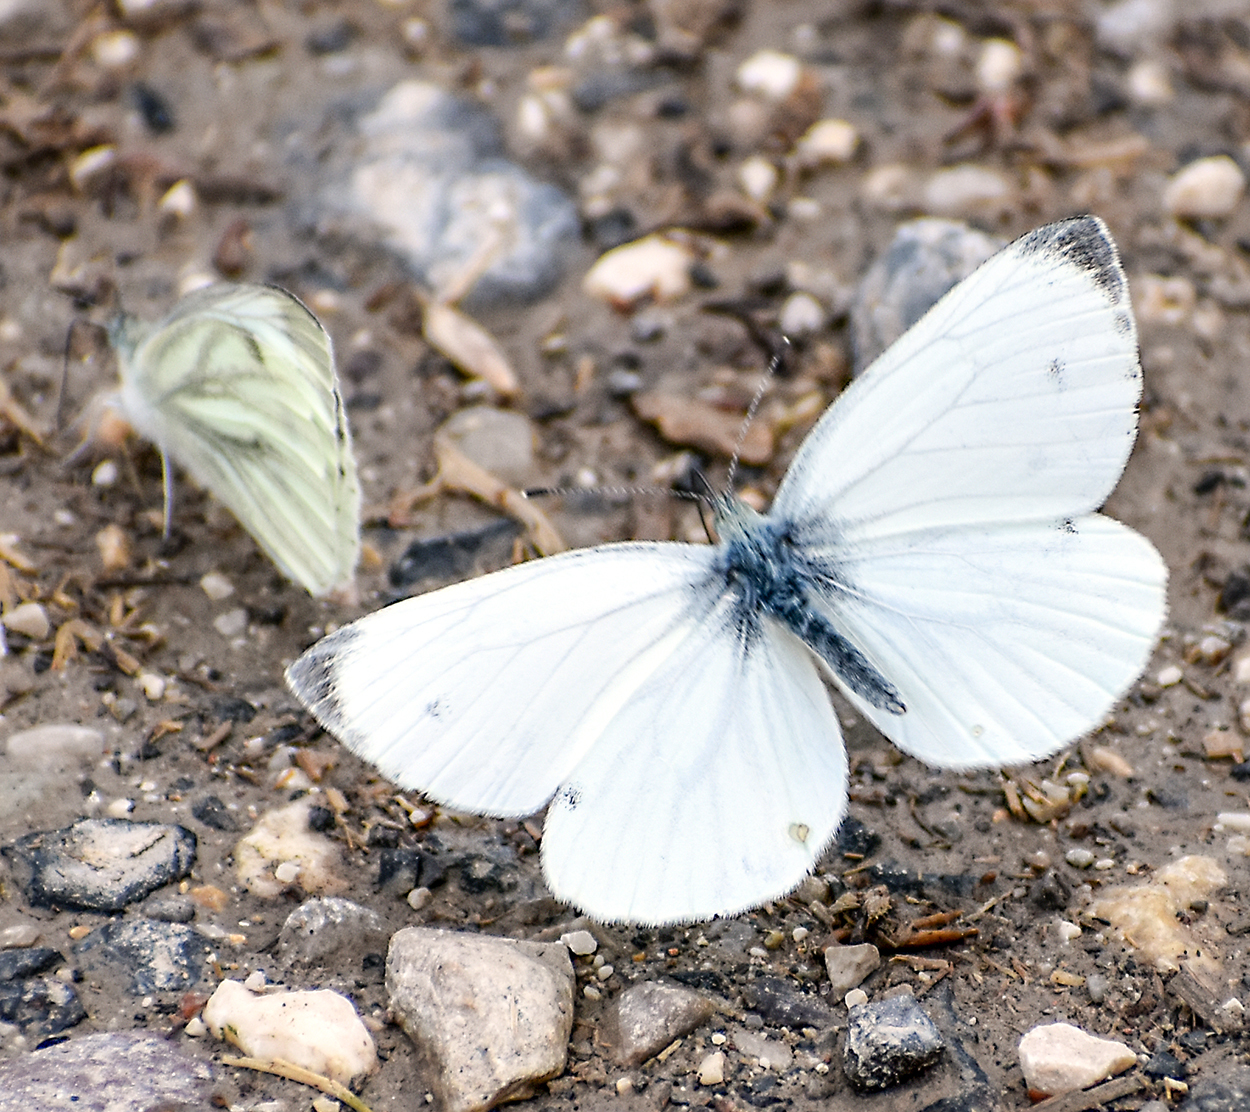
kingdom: Animalia
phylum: Arthropoda
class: Insecta
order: Lepidoptera
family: Pieridae
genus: Pieris
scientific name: Pieris napi
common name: Green-veined white
